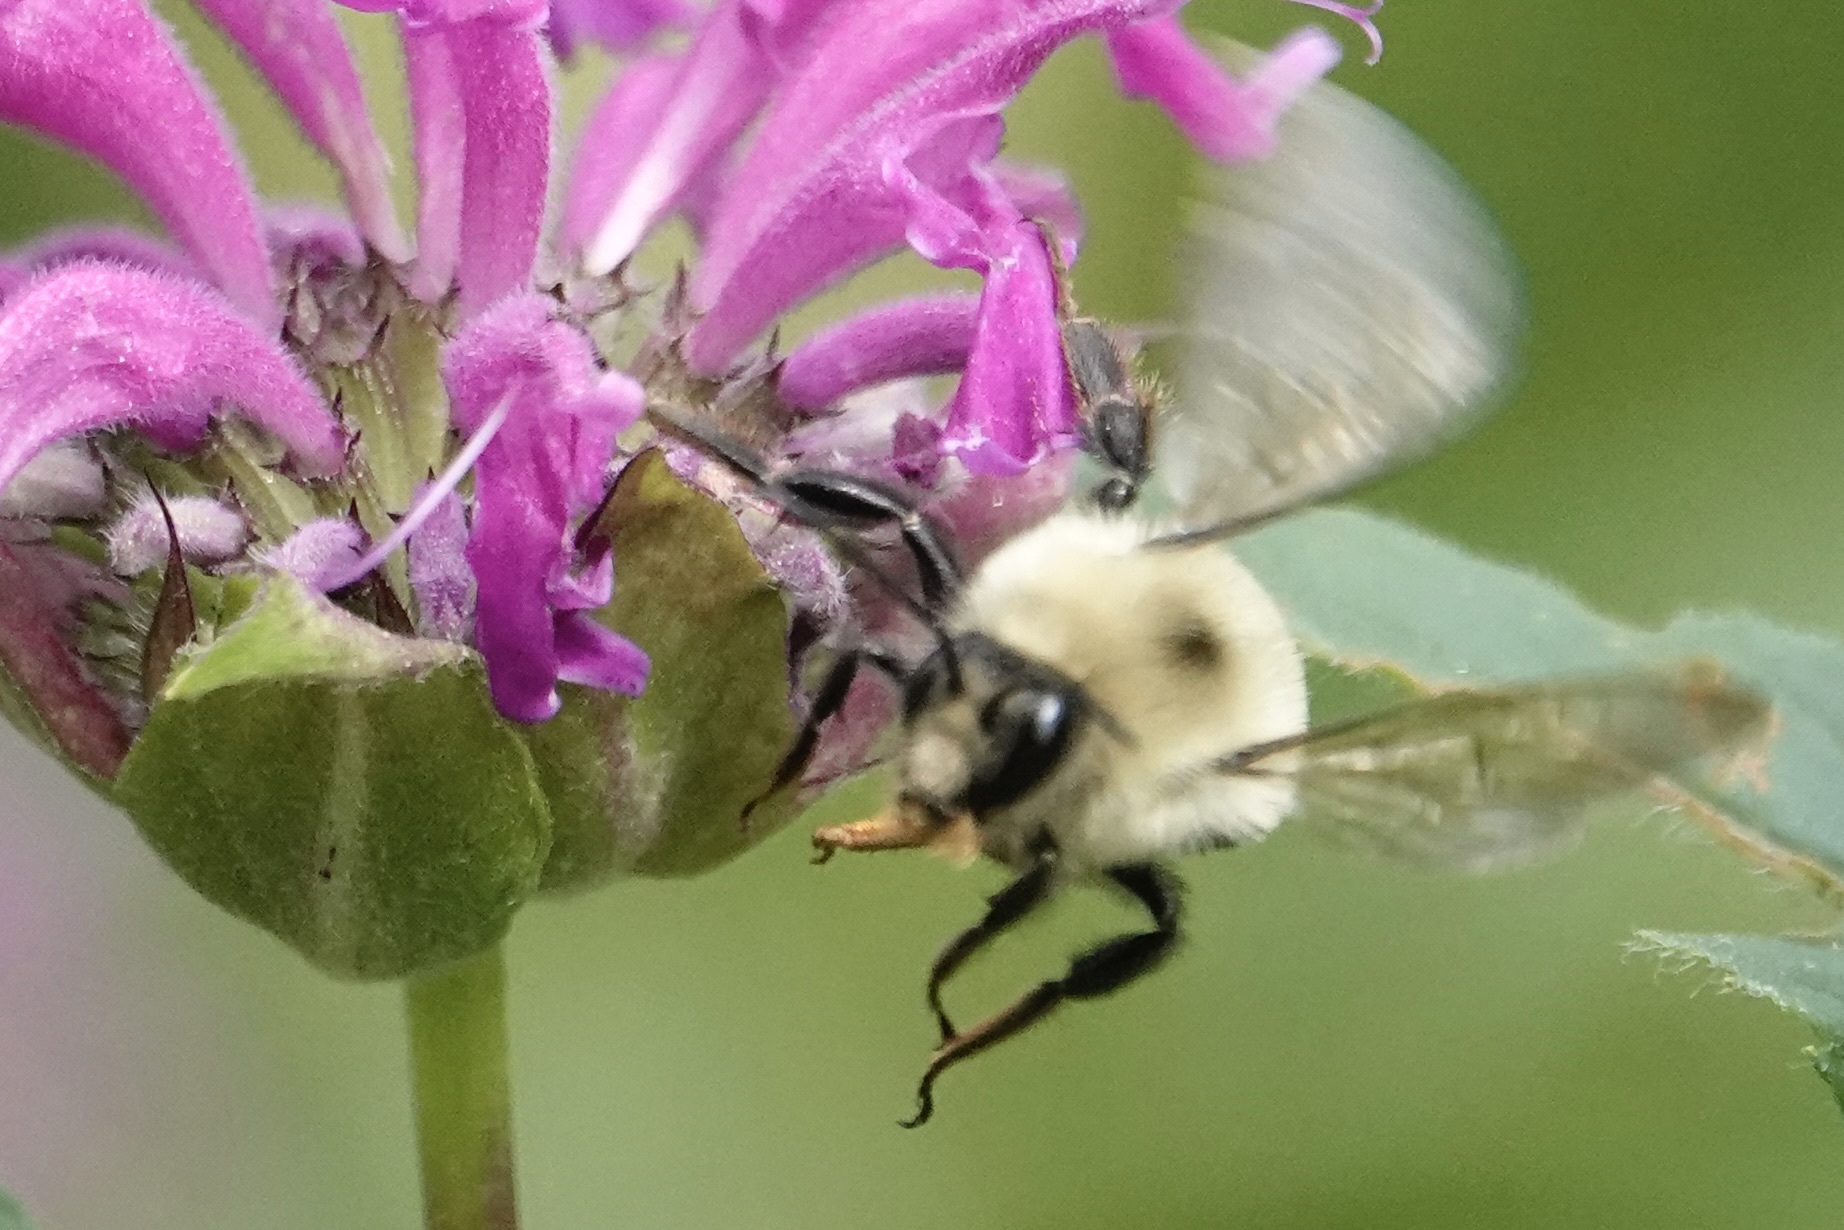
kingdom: Animalia
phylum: Arthropoda
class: Insecta
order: Hymenoptera
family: Apidae
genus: Bombus
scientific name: Bombus bimaculatus
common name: Two-spotted bumble bee
